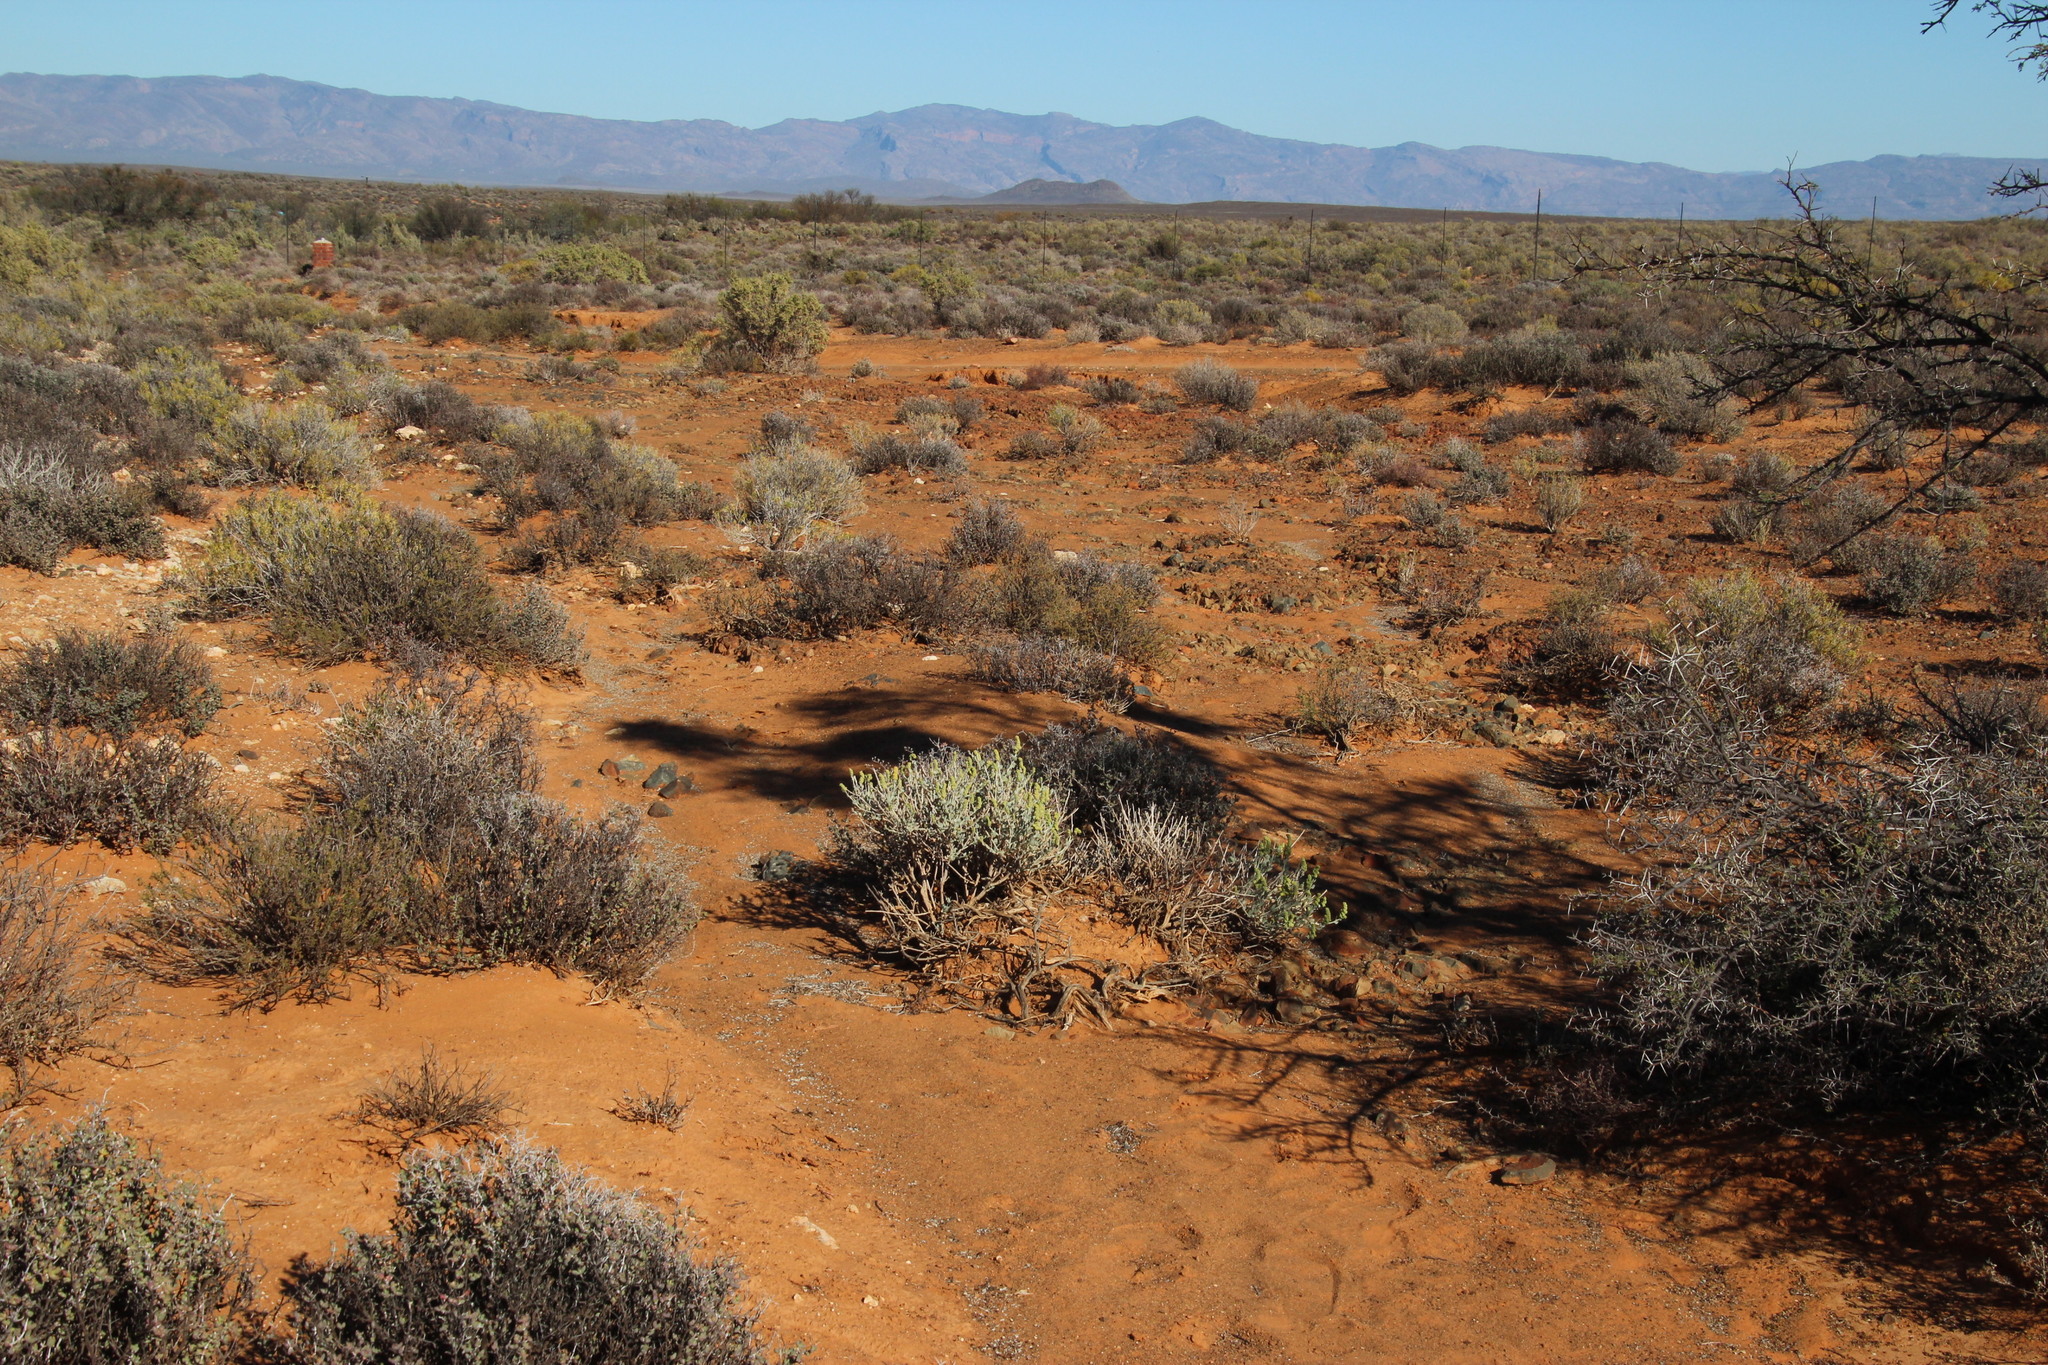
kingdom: Plantae
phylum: Tracheophyta
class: Magnoliopsida
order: Caryophyllales
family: Amaranthaceae
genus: Exomis
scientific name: Exomis albicans
